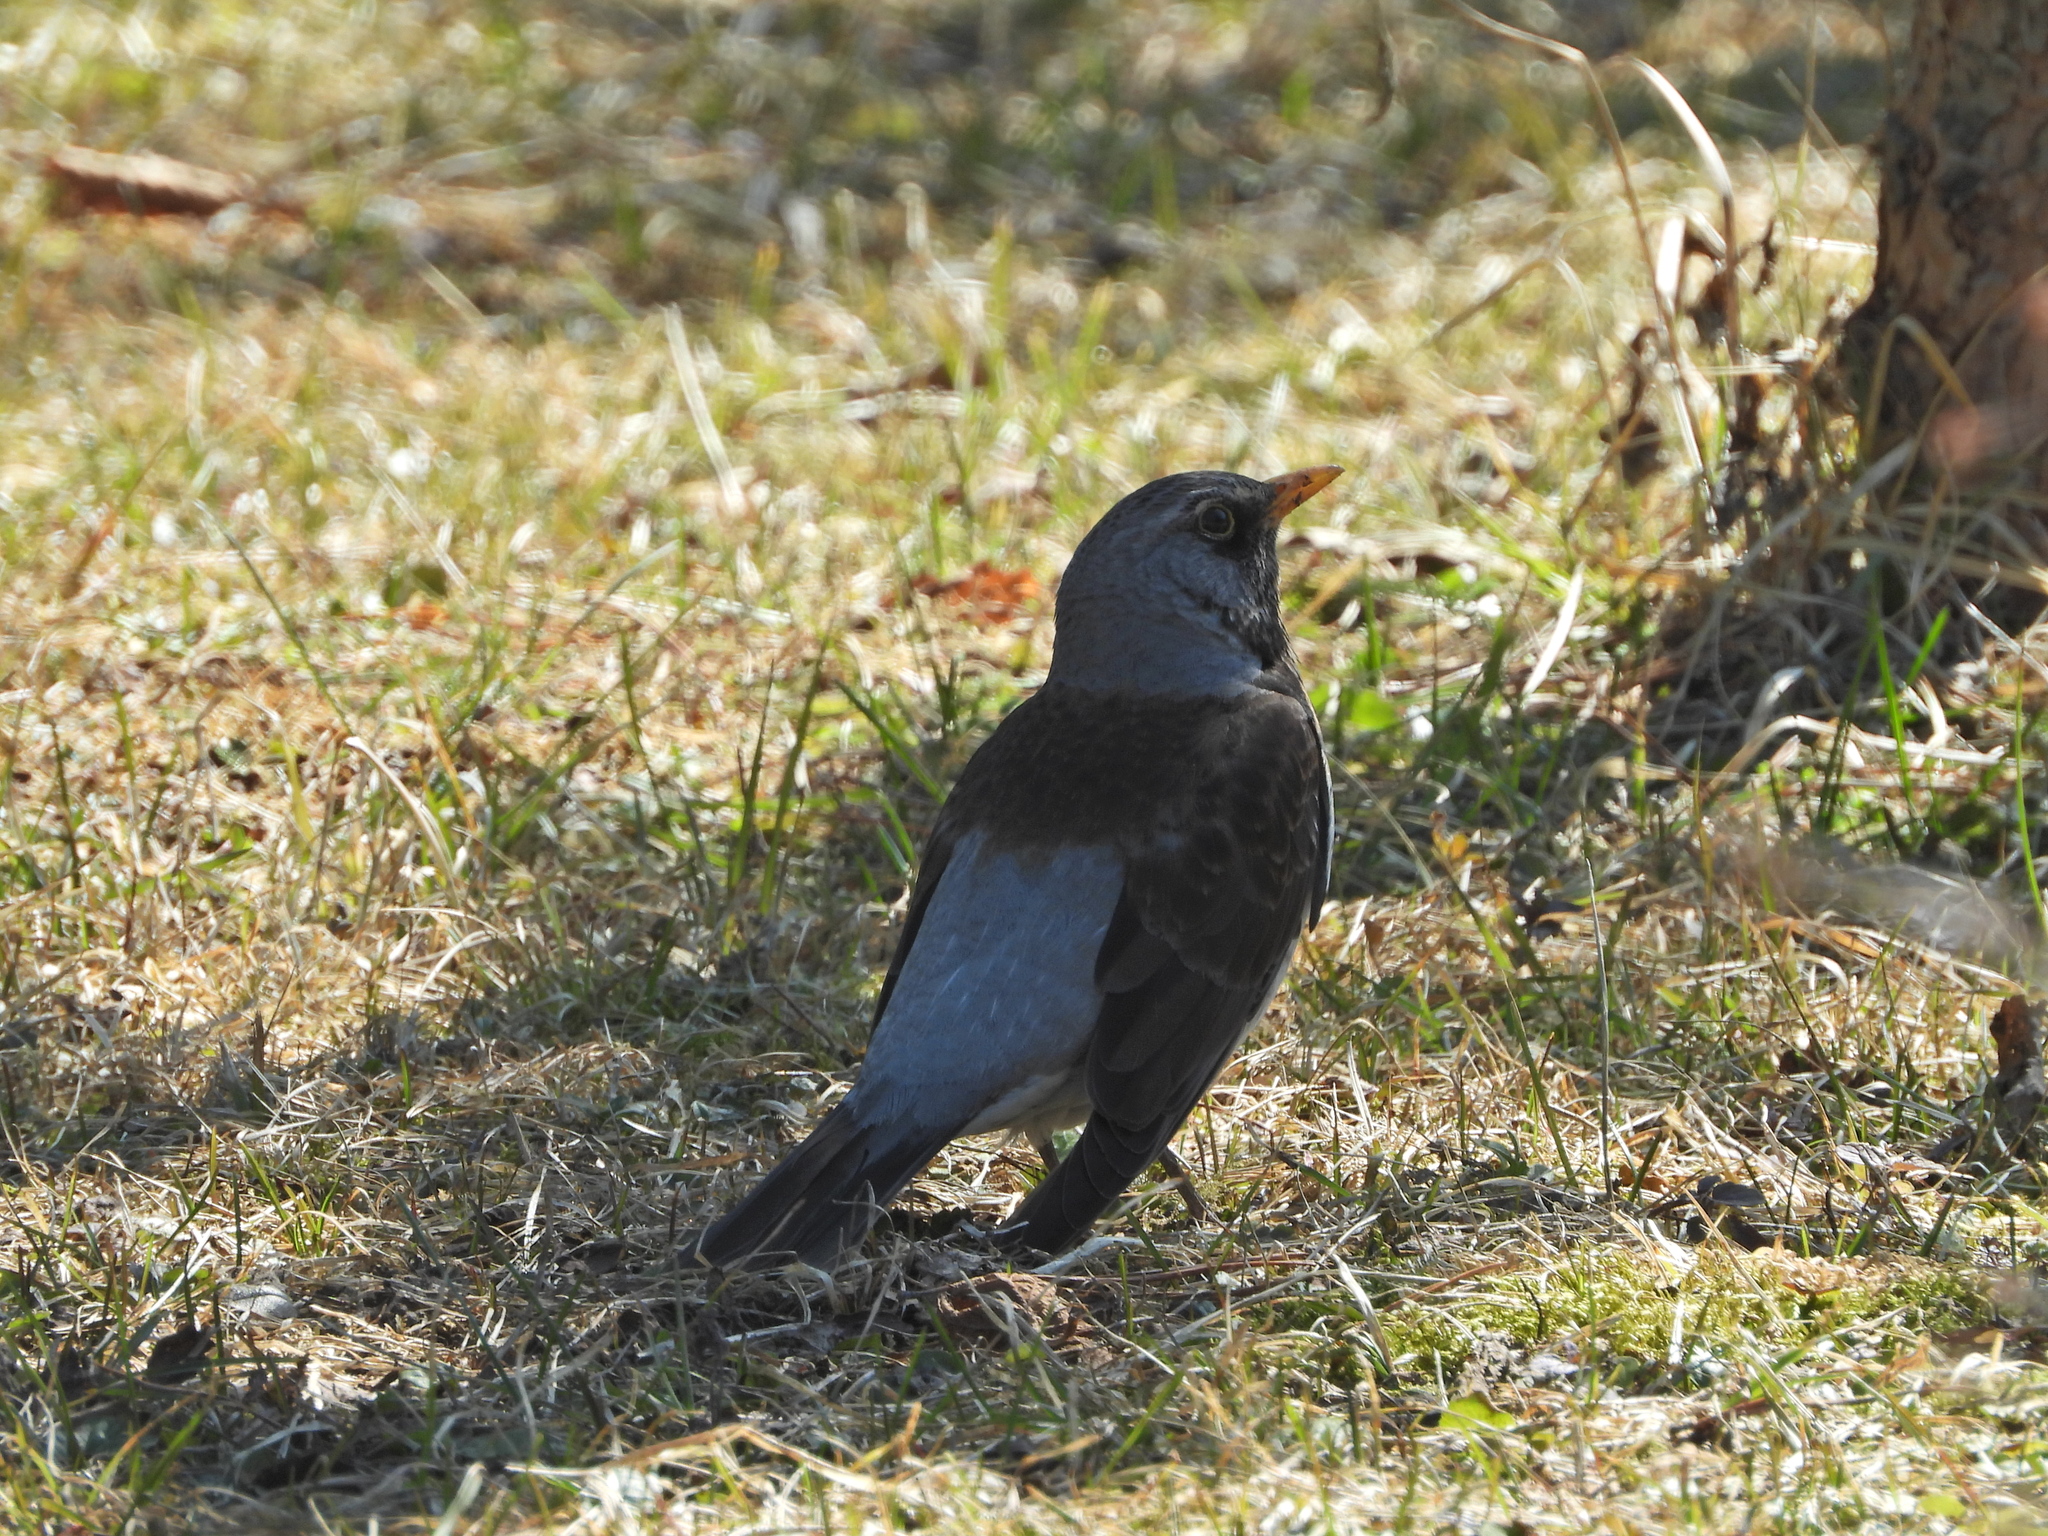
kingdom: Animalia
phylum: Chordata
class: Aves
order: Passeriformes
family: Turdidae
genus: Turdus
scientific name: Turdus pilaris
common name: Fieldfare
